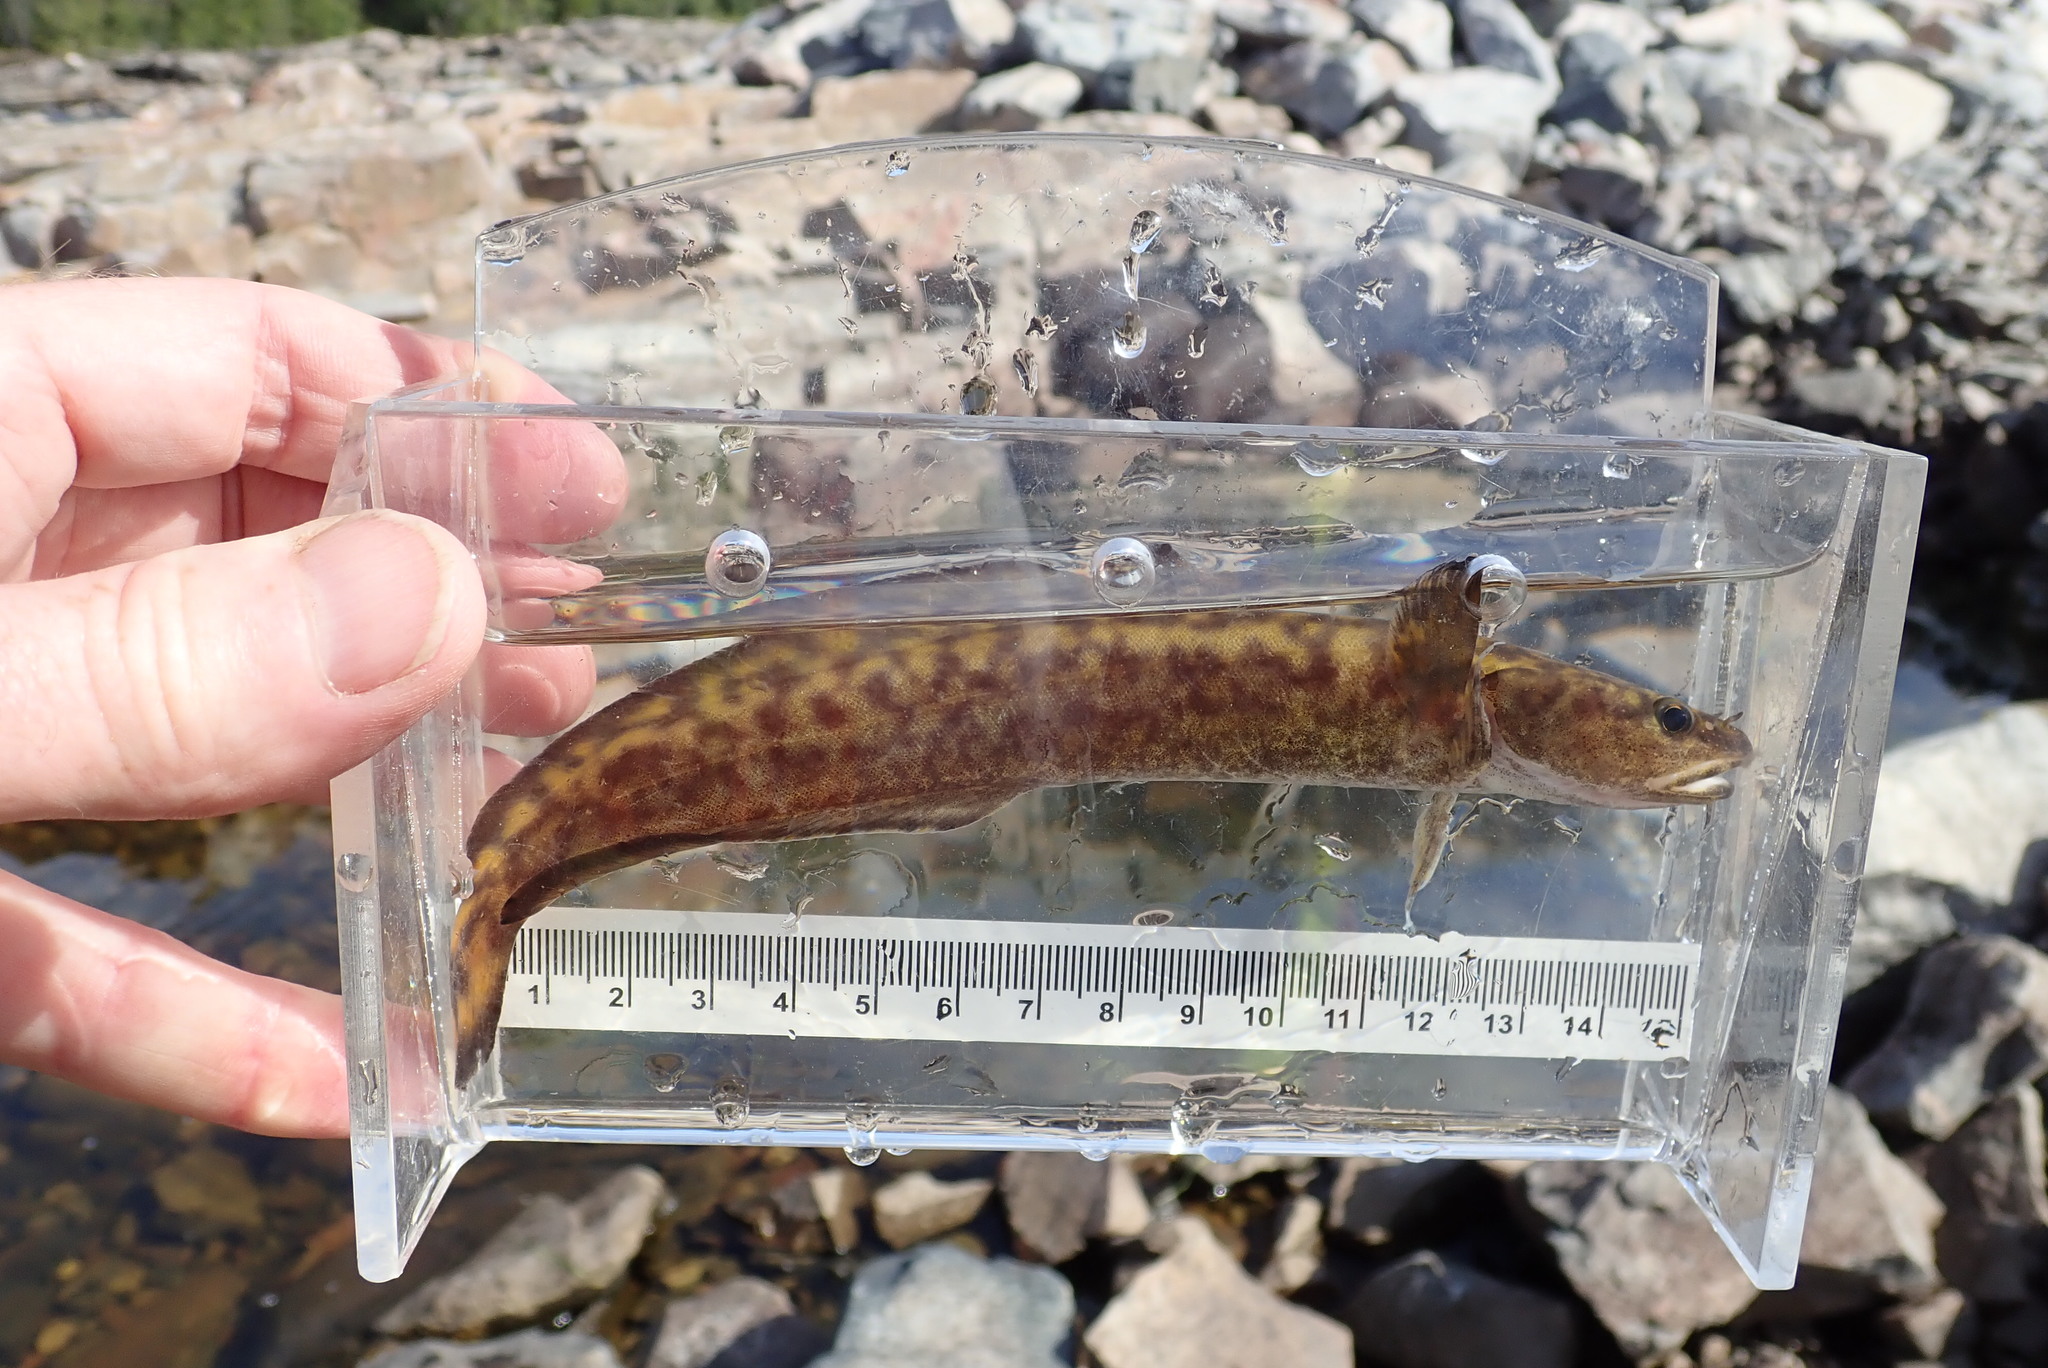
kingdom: Animalia
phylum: Chordata
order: Gadiformes
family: Lotidae
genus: Lota
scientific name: Lota lota
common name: Burbot
